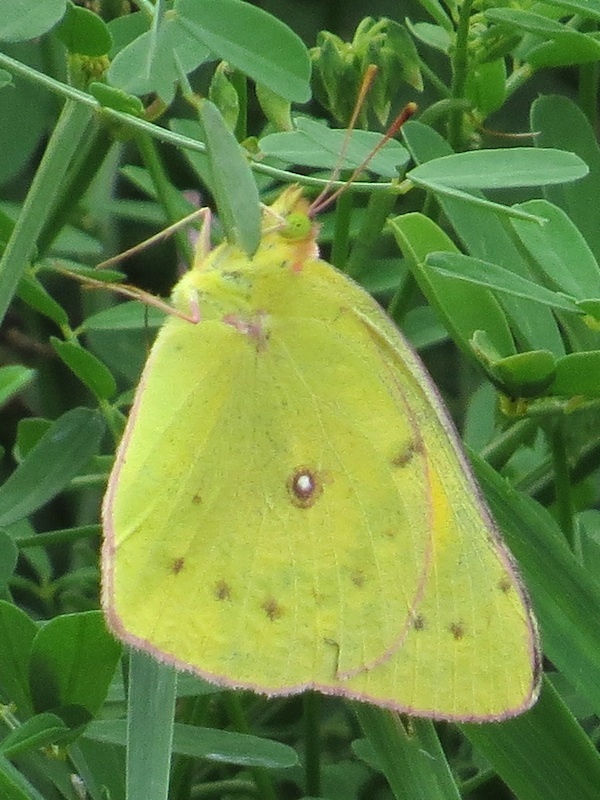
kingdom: Animalia
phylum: Arthropoda
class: Insecta
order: Lepidoptera
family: Pieridae
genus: Colias
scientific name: Colias eurytheme
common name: Alfalfa butterfly
